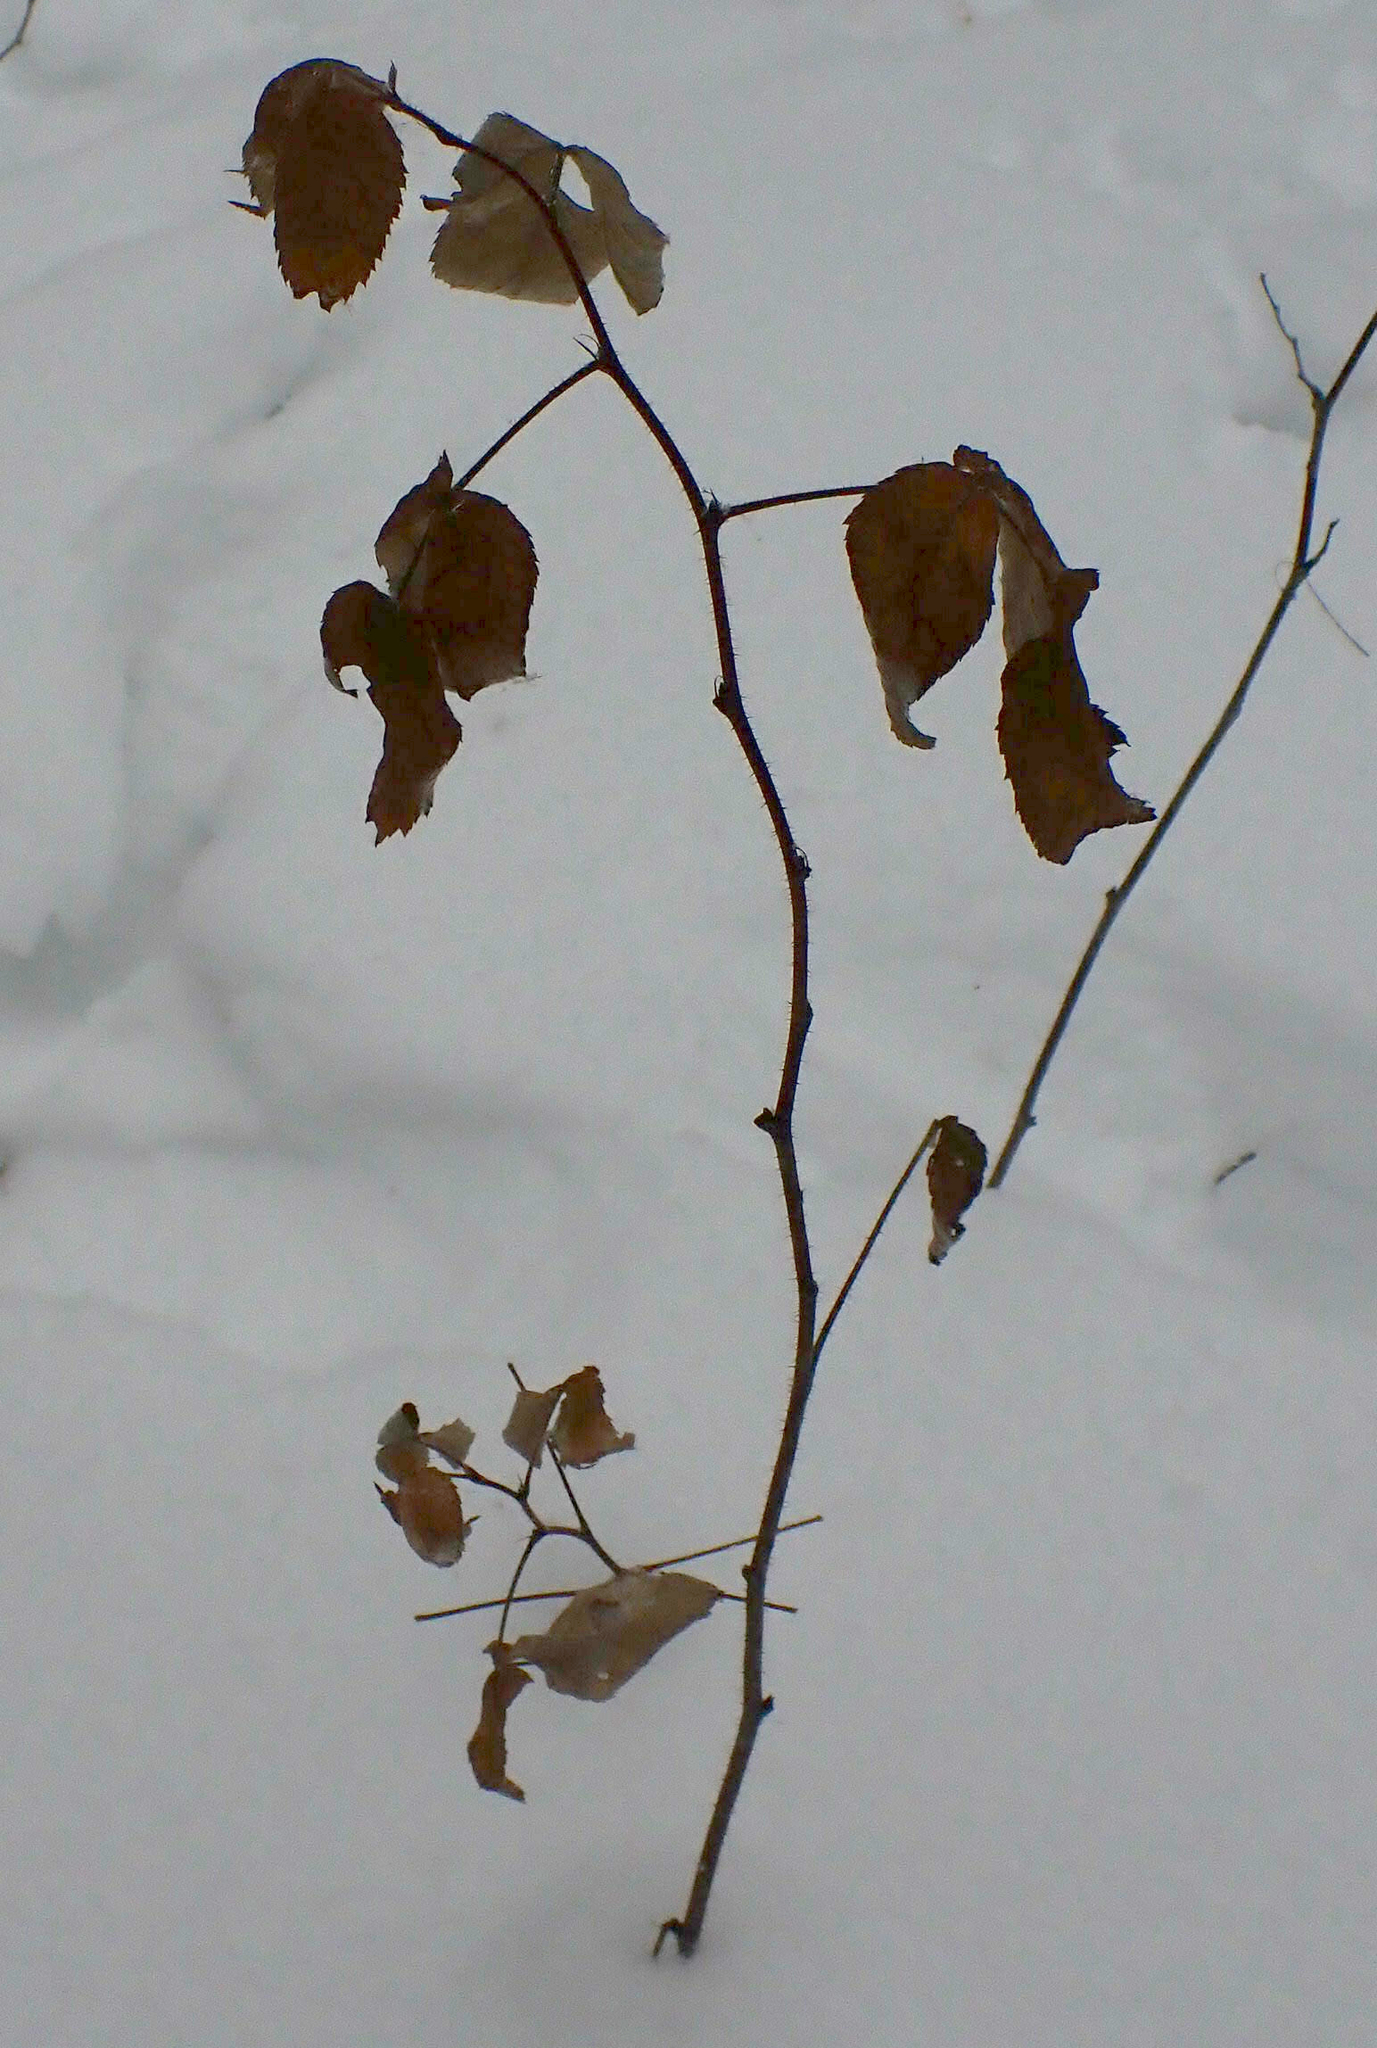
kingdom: Plantae
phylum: Tracheophyta
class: Magnoliopsida
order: Rosales
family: Rosaceae
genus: Rubus
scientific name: Rubus idaeus
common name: Raspberry
